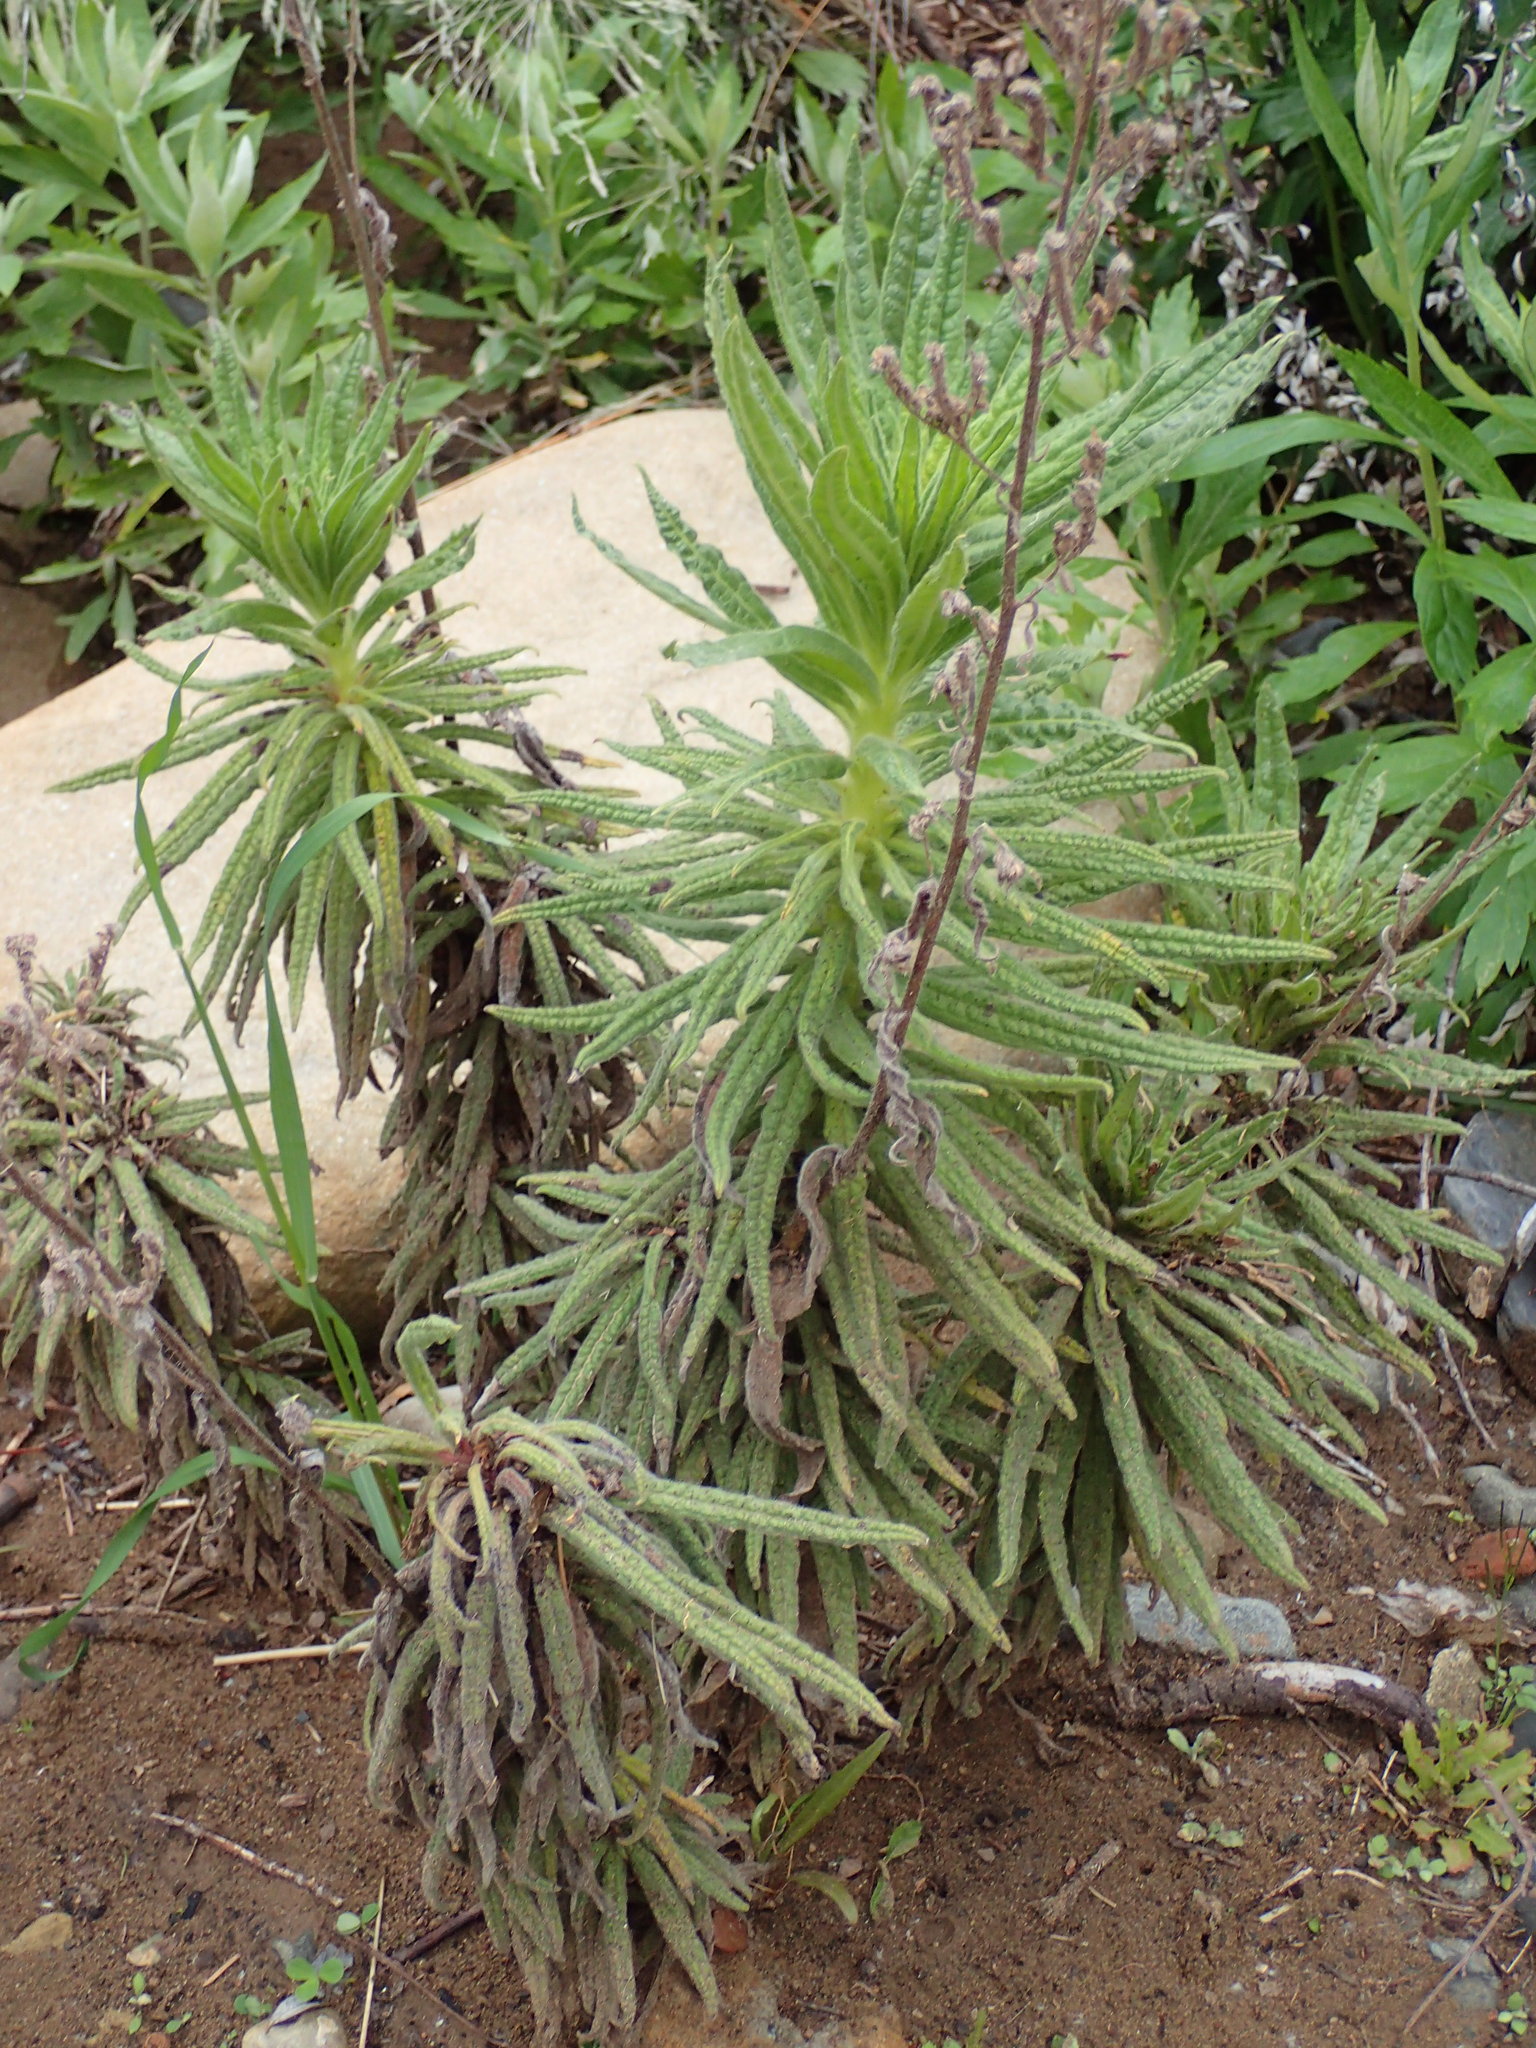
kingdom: Plantae
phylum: Tracheophyta
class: Magnoliopsida
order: Boraginales
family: Namaceae
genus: Turricula
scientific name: Turricula parryi
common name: Poodle-dog-bush
